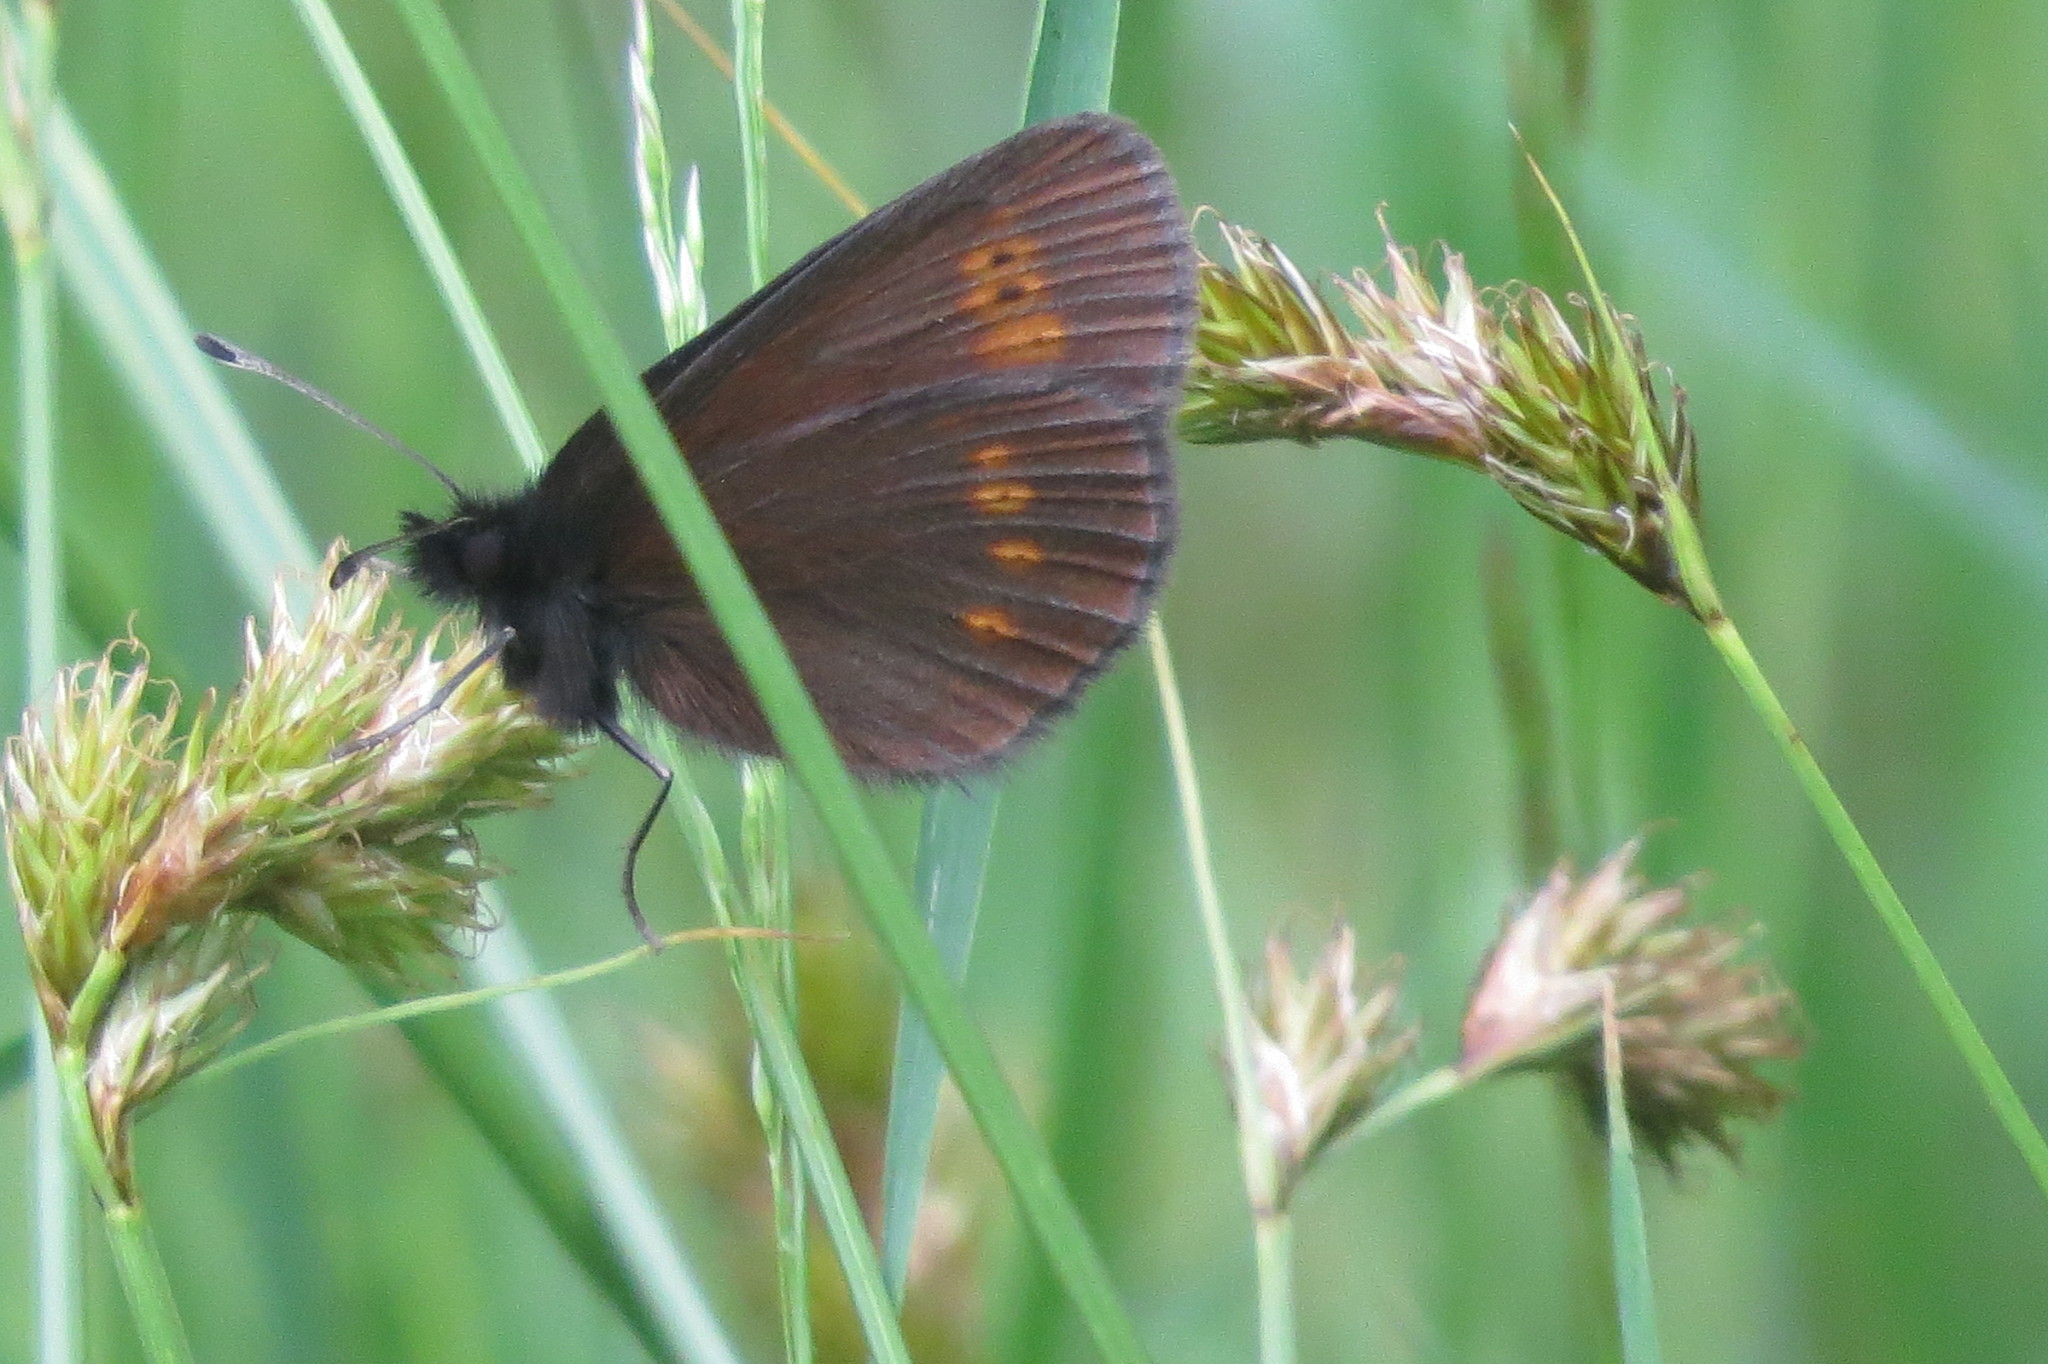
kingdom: Animalia
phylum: Arthropoda
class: Insecta
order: Lepidoptera
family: Nymphalidae
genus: Erebia
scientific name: Erebia melampus
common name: Lesser mountain ringlet
